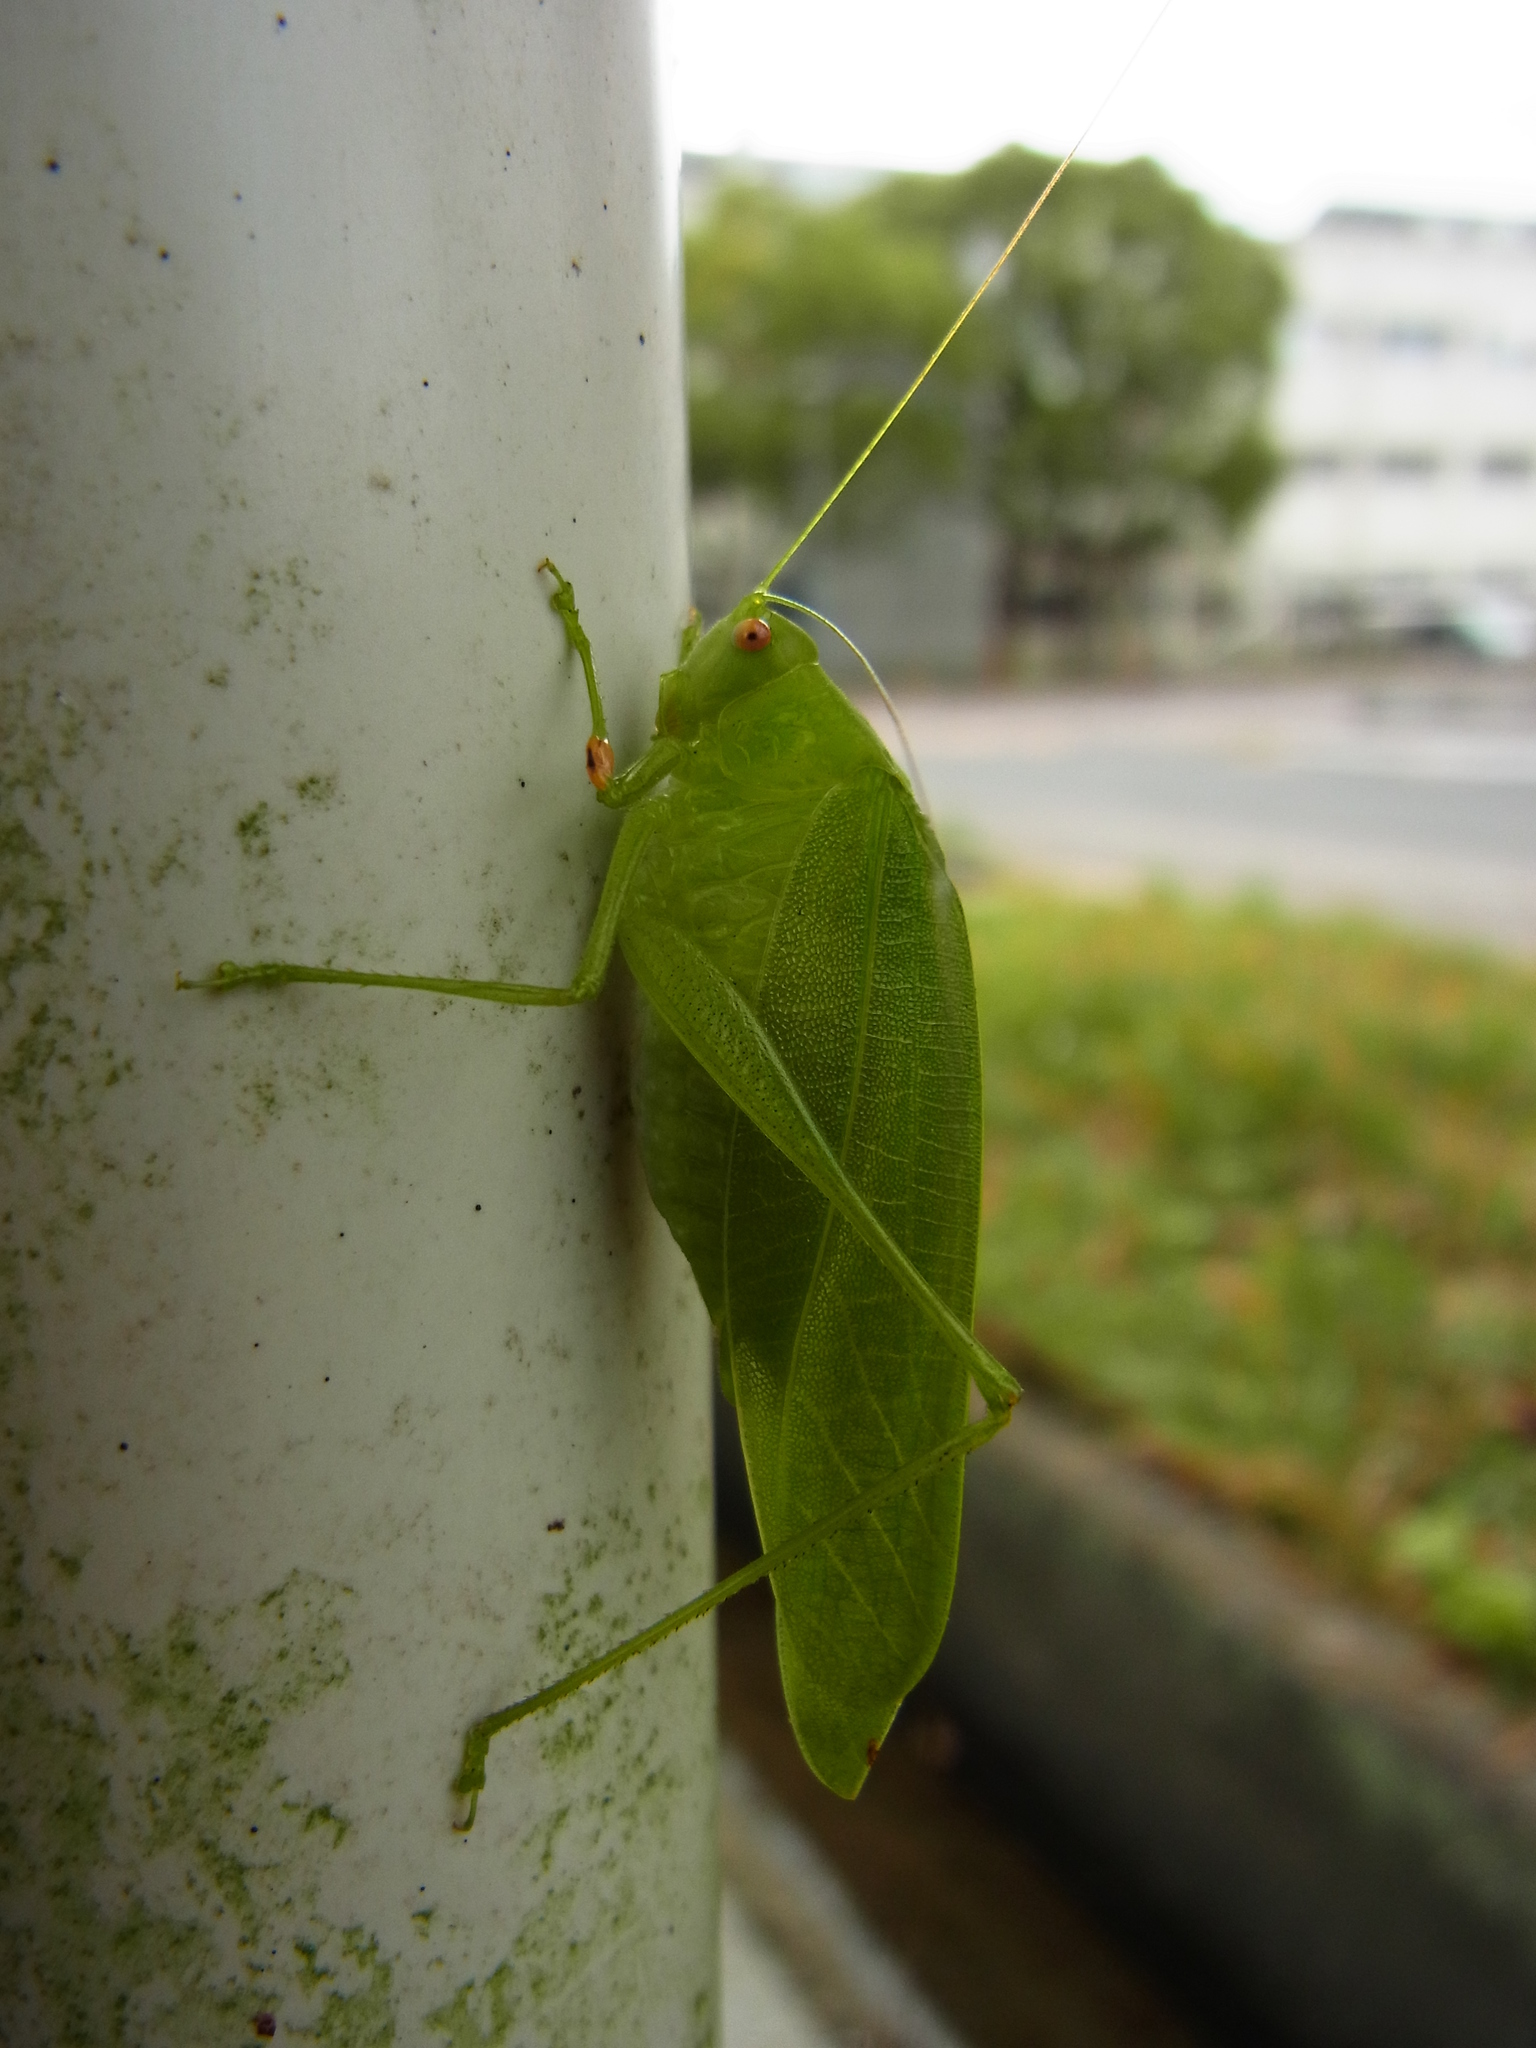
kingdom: Animalia
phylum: Arthropoda
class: Insecta
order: Orthoptera
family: Tettigoniidae
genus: Phaulula
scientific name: Phaulula macilenta
